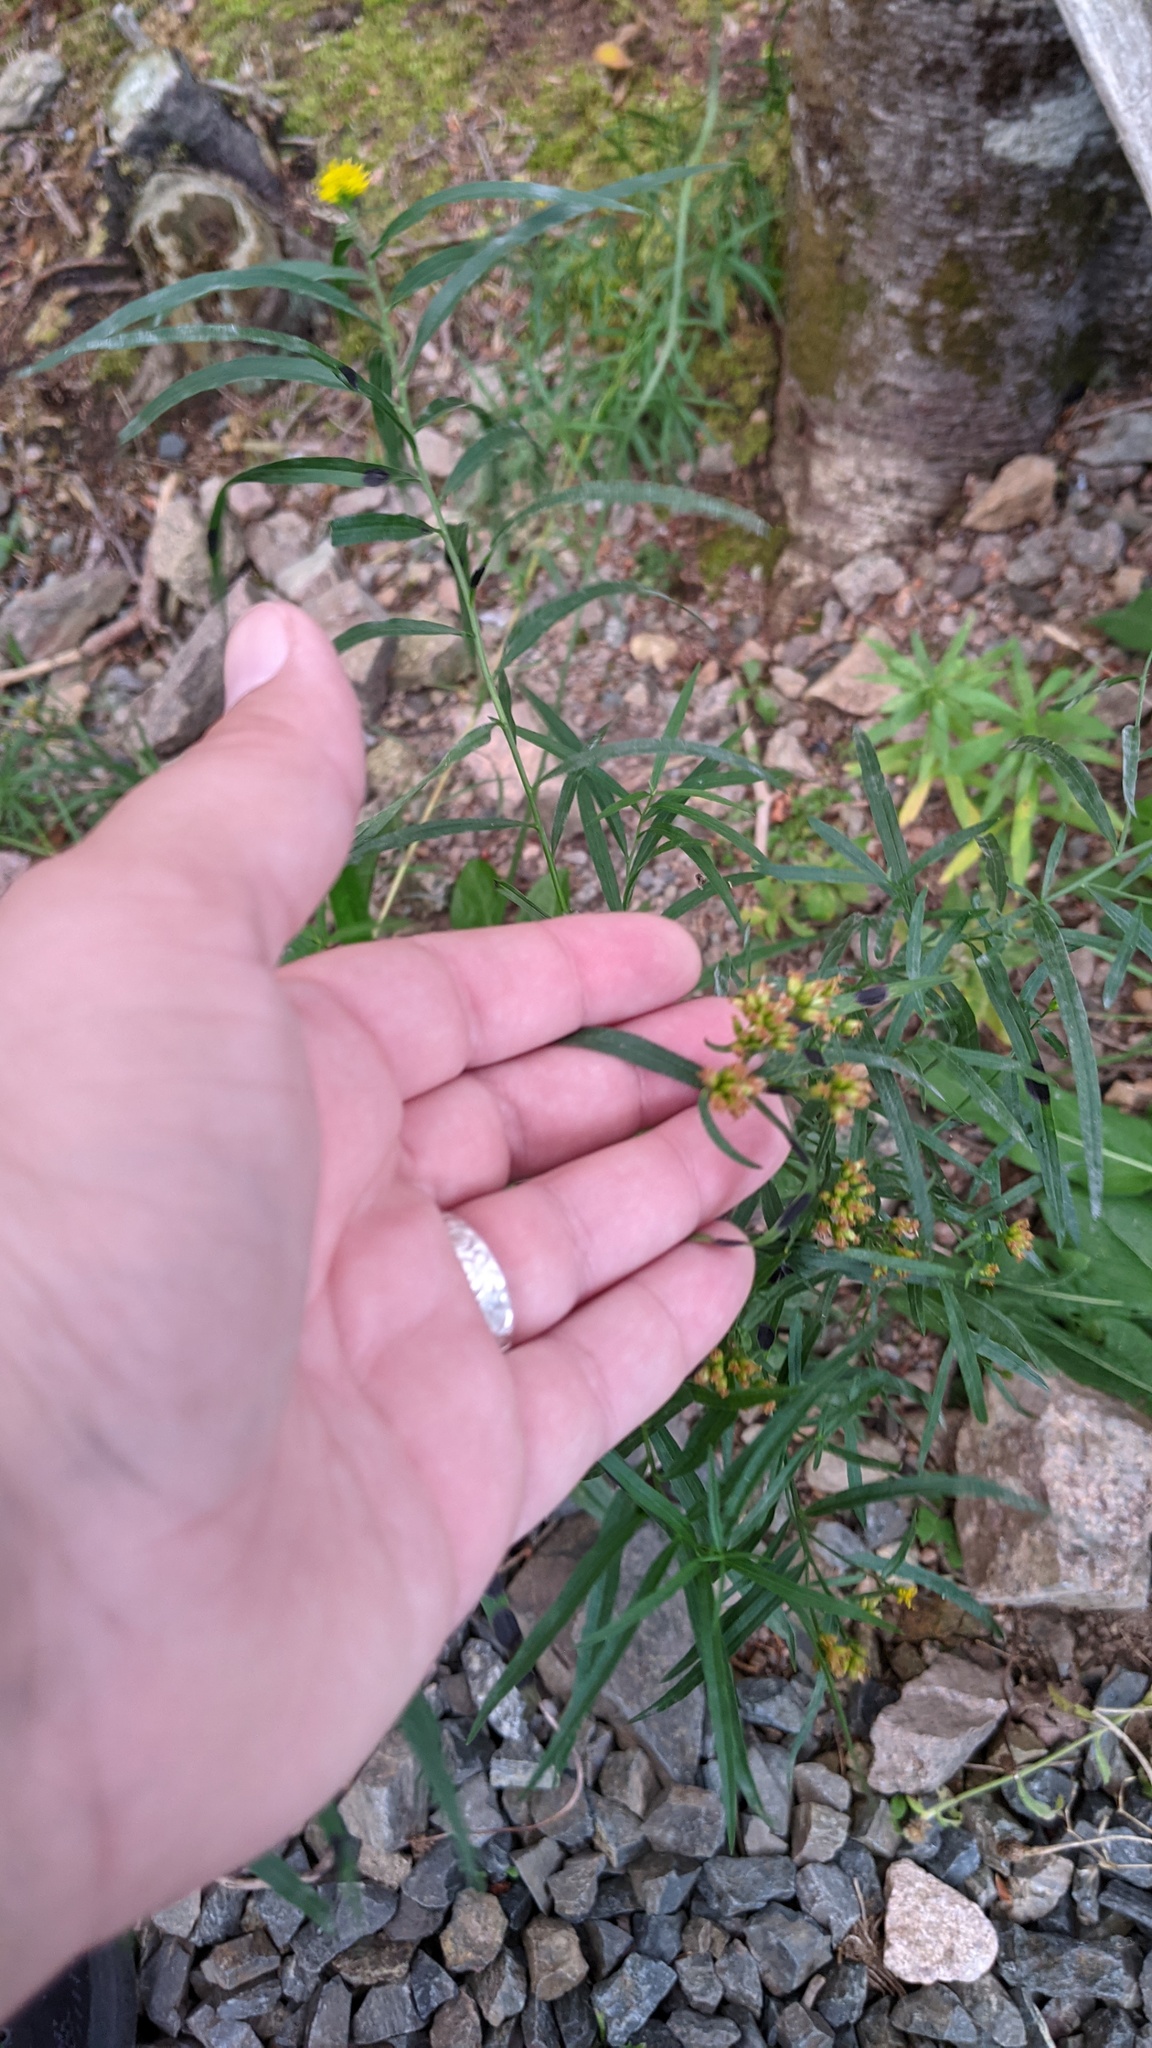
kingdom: Plantae
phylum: Tracheophyta
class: Magnoliopsida
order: Asterales
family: Asteraceae
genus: Euthamia
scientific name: Euthamia graminifolia
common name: Common goldentop
